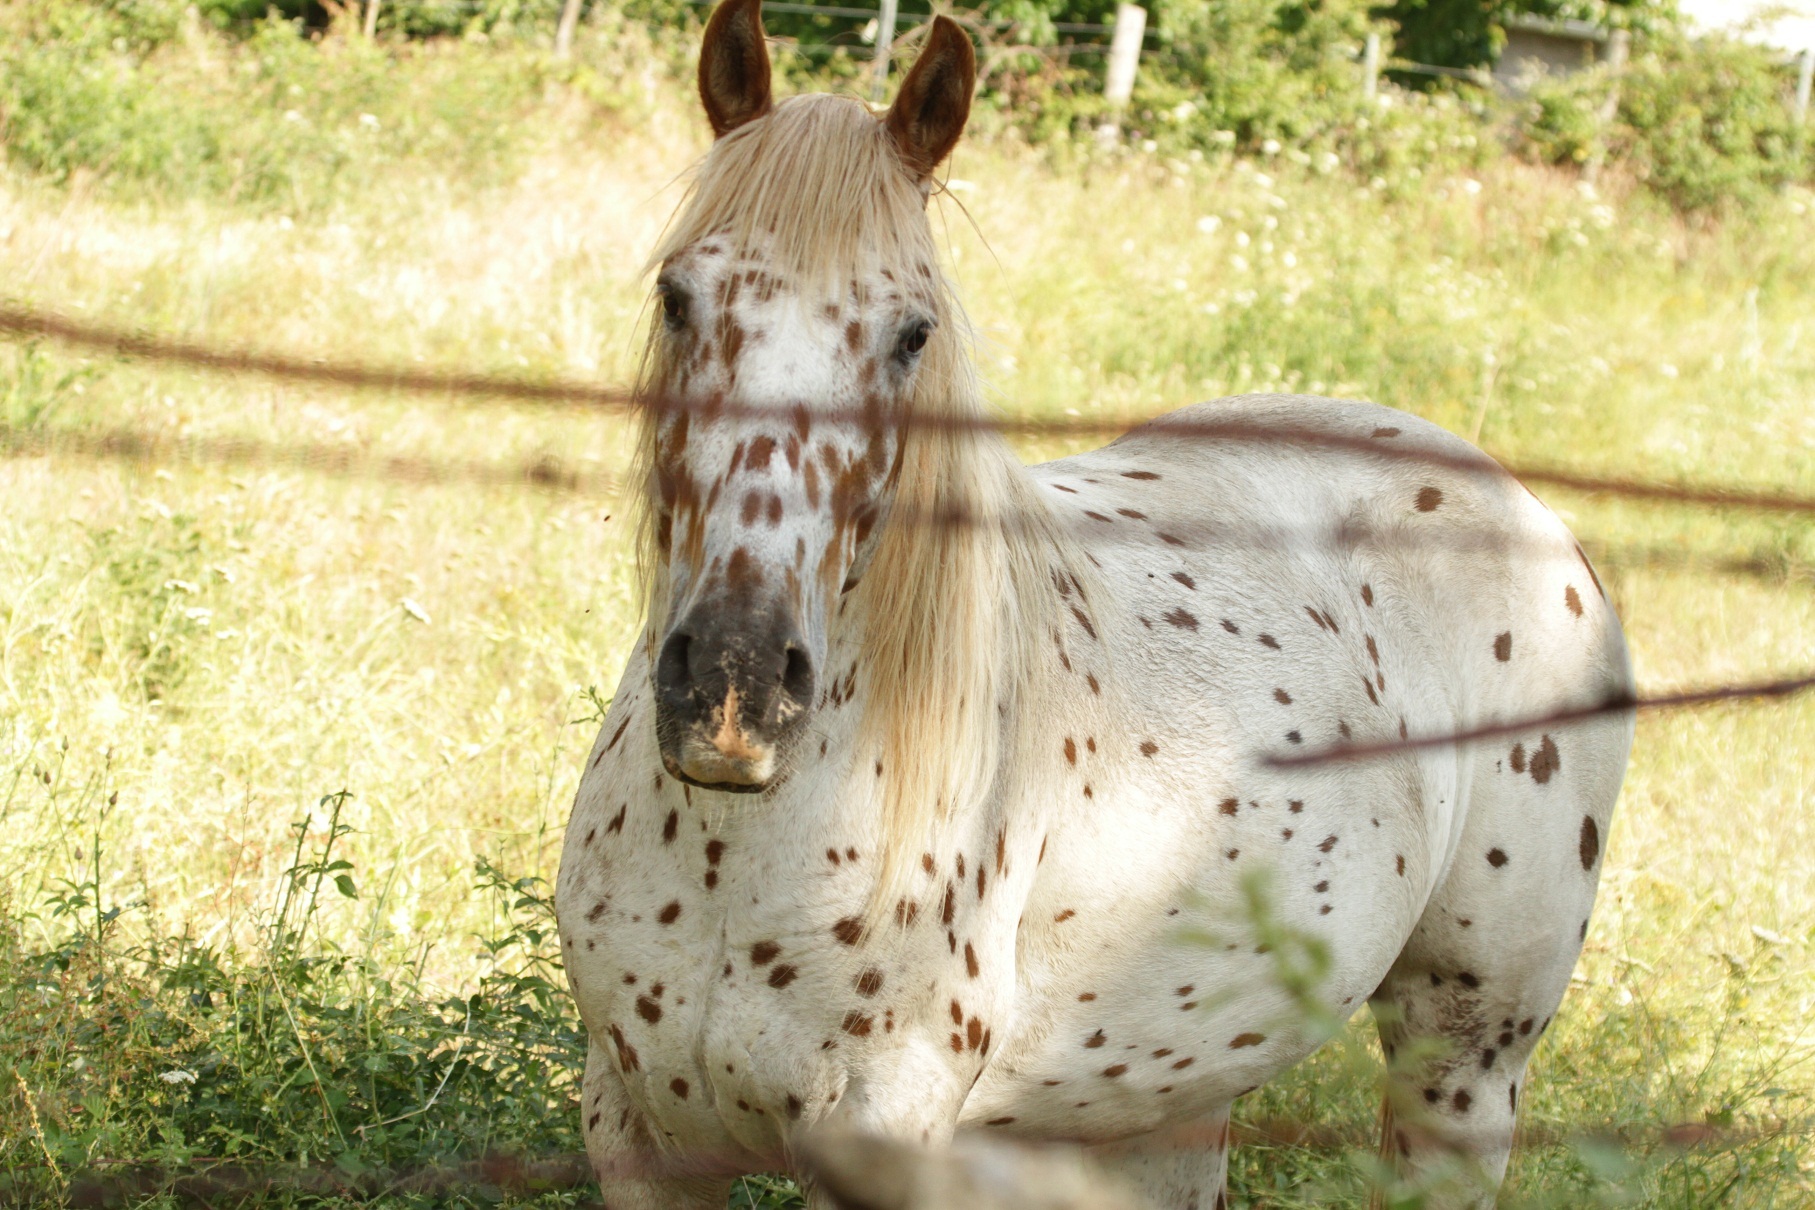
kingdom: Animalia
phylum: Chordata
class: Mammalia
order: Perissodactyla
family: Equidae
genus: Equus
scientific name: Equus caballus
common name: Horse
